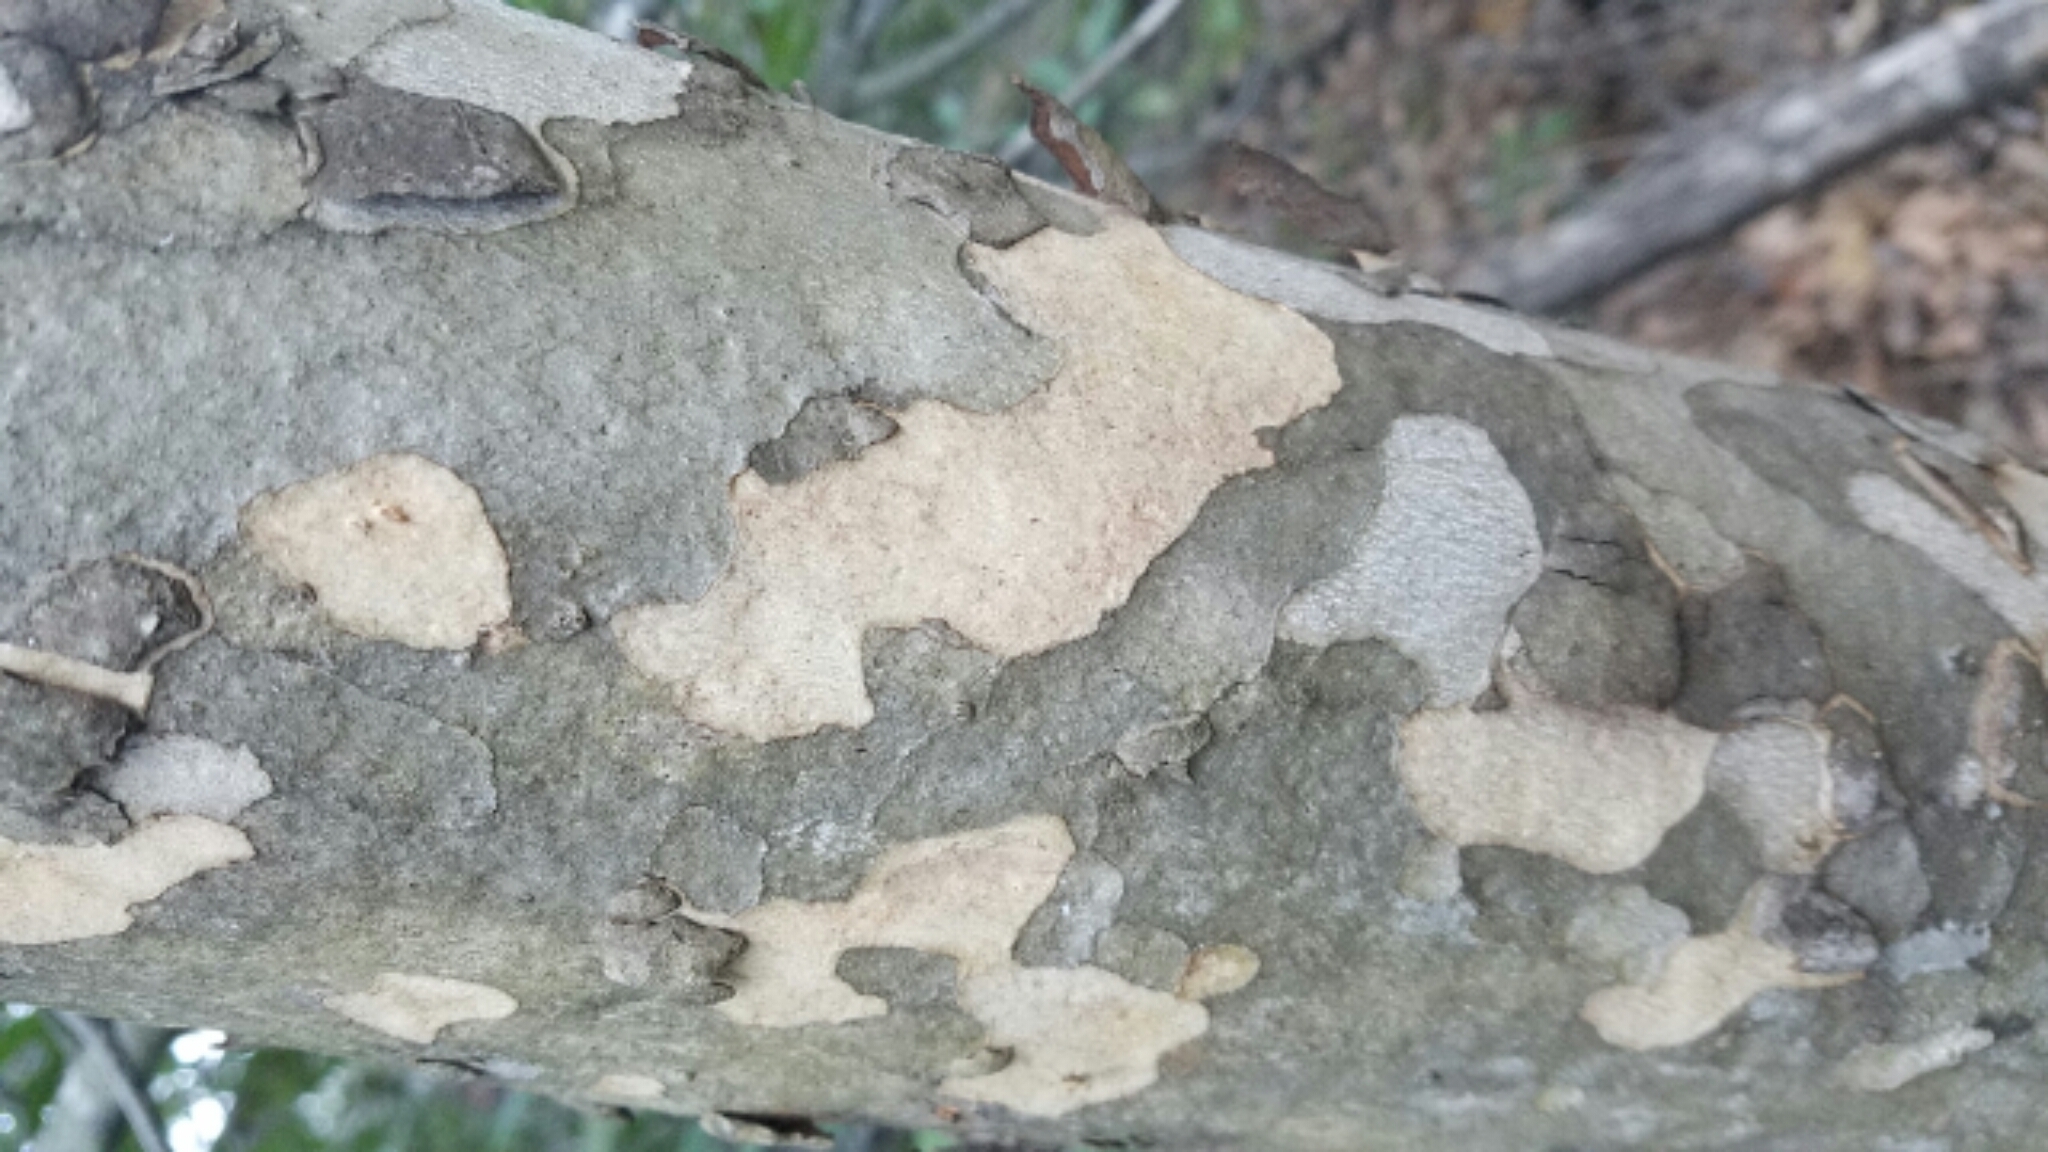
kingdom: Plantae
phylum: Tracheophyta
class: Magnoliopsida
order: Proteales
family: Platanaceae
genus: Platanus
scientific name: Platanus racemosa
